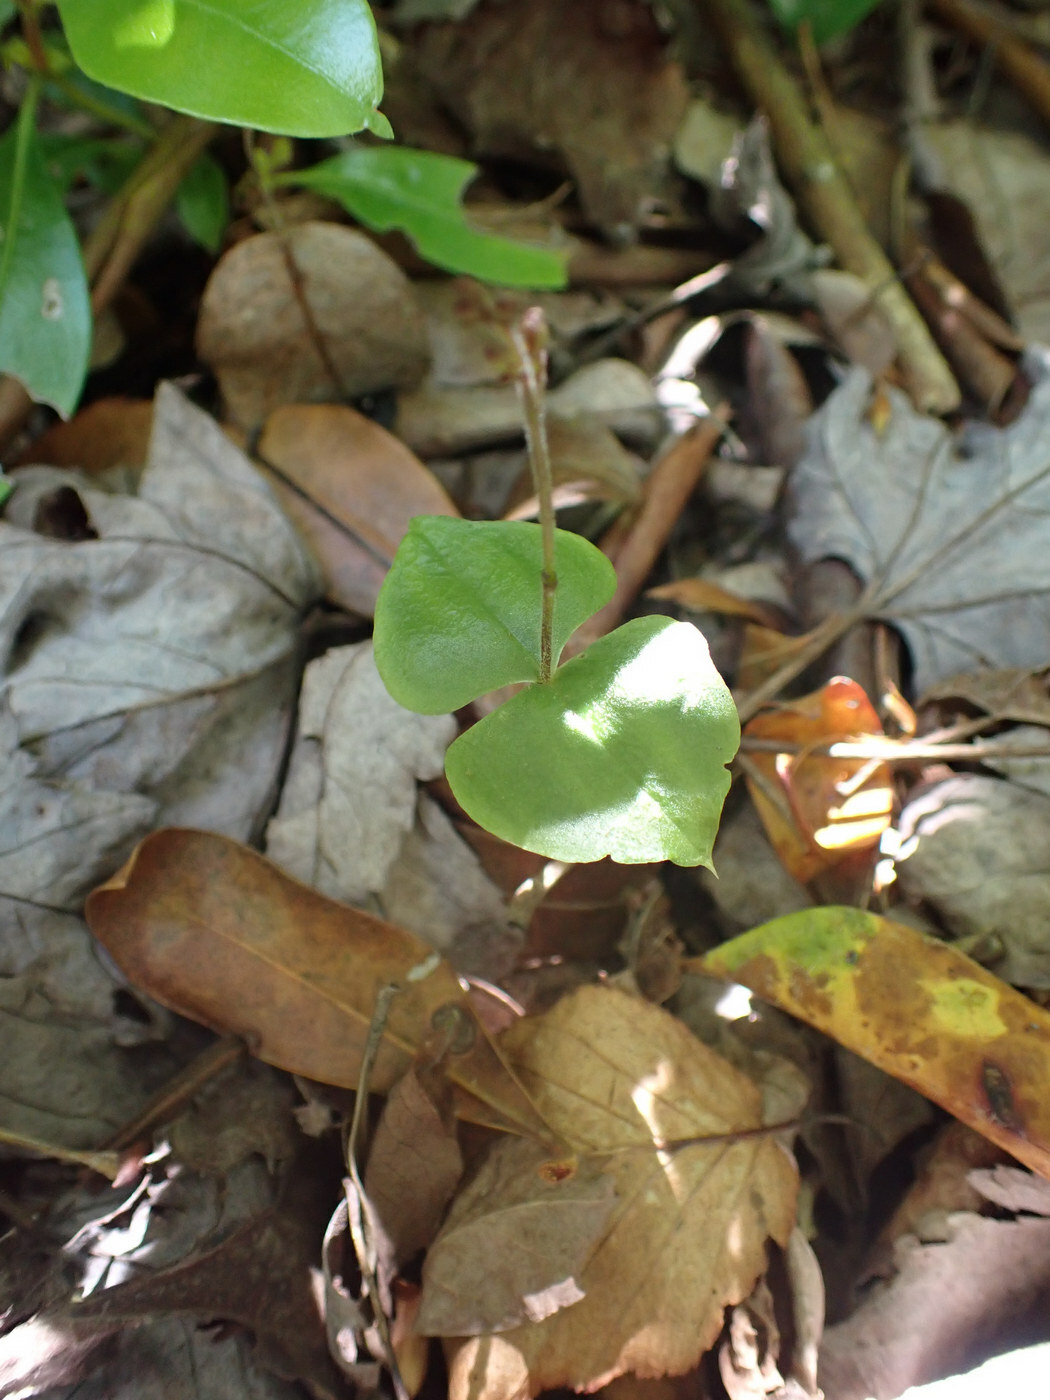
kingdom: Plantae
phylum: Tracheophyta
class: Liliopsida
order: Asparagales
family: Orchidaceae
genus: Neottia
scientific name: Neottia smallii
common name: Kidneyleaf twayblade
